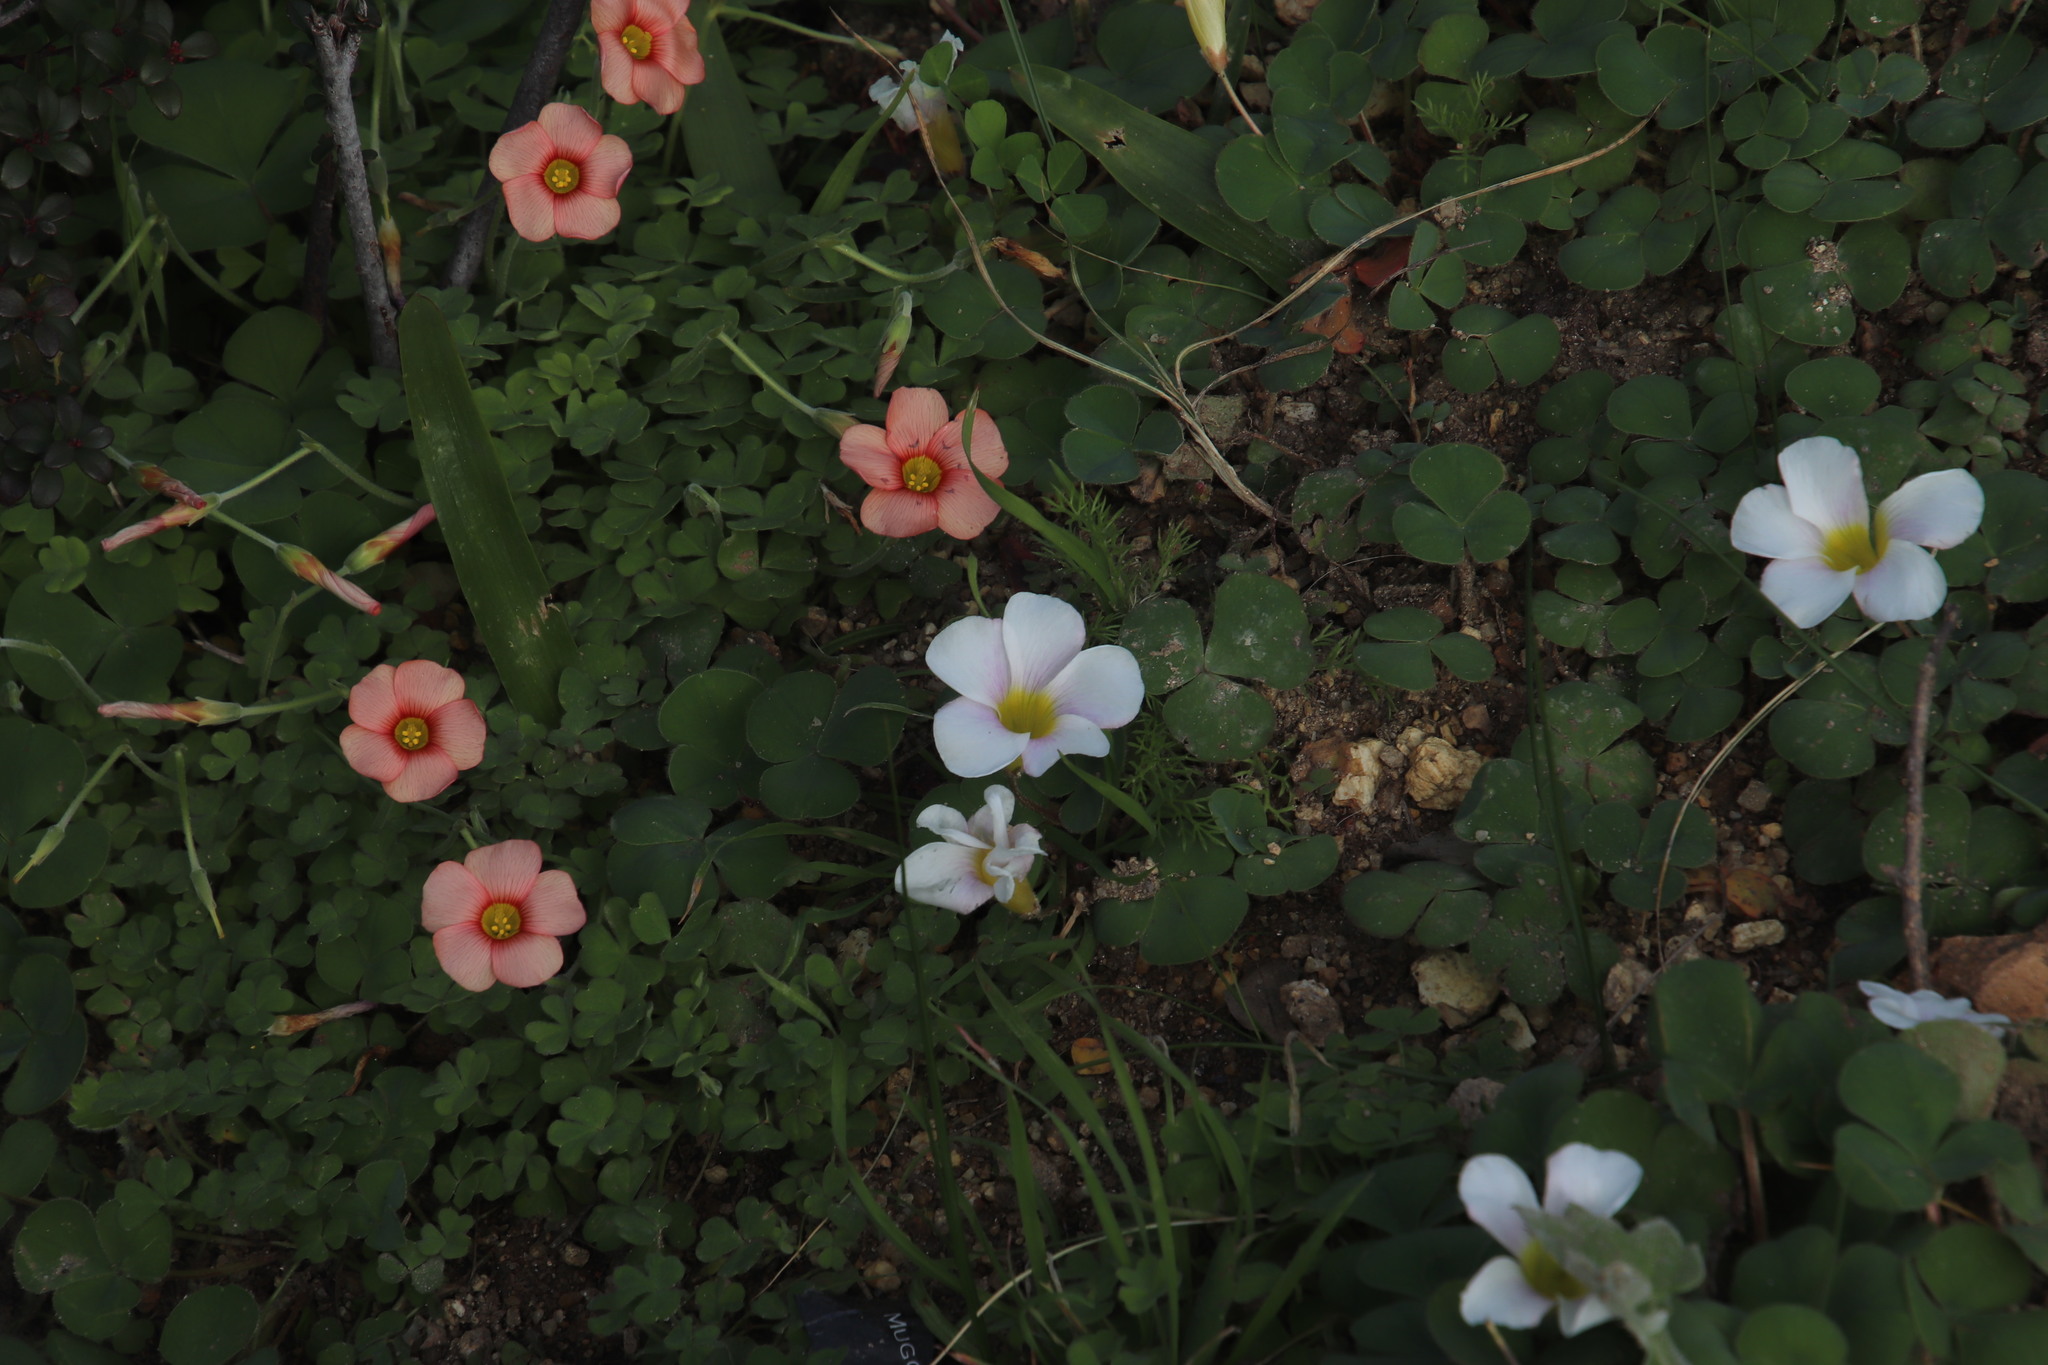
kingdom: Plantae
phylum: Tracheophyta
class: Magnoliopsida
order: Oxalidales
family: Oxalidaceae
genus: Oxalis
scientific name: Oxalis obtusa
